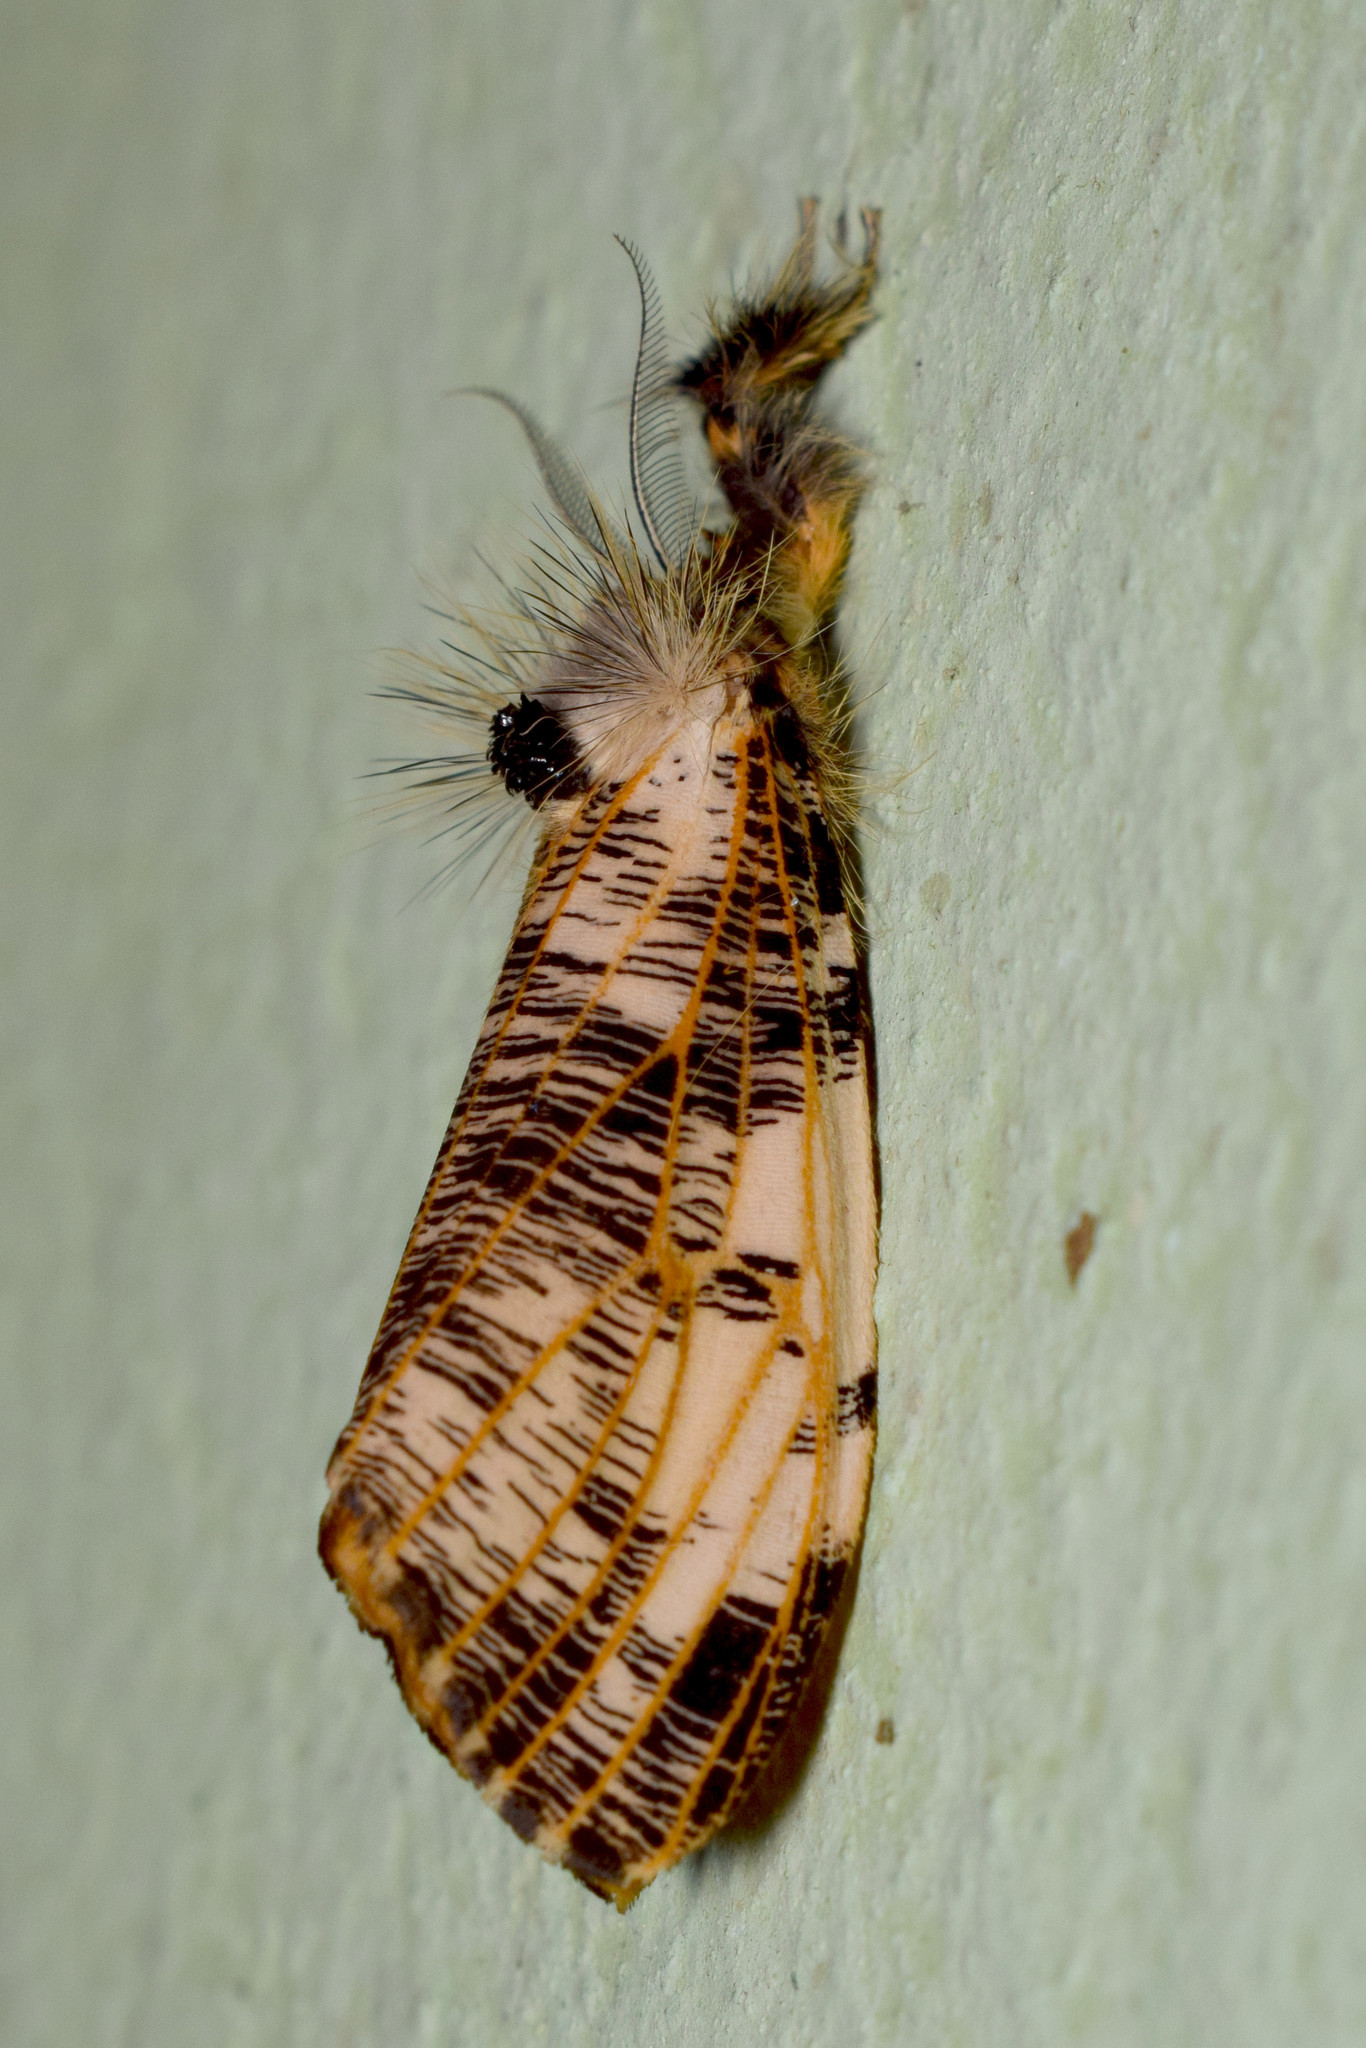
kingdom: Animalia
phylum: Arthropoda
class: Insecta
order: Lepidoptera
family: Erebidae
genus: Locharna
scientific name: Locharna strigipennis
